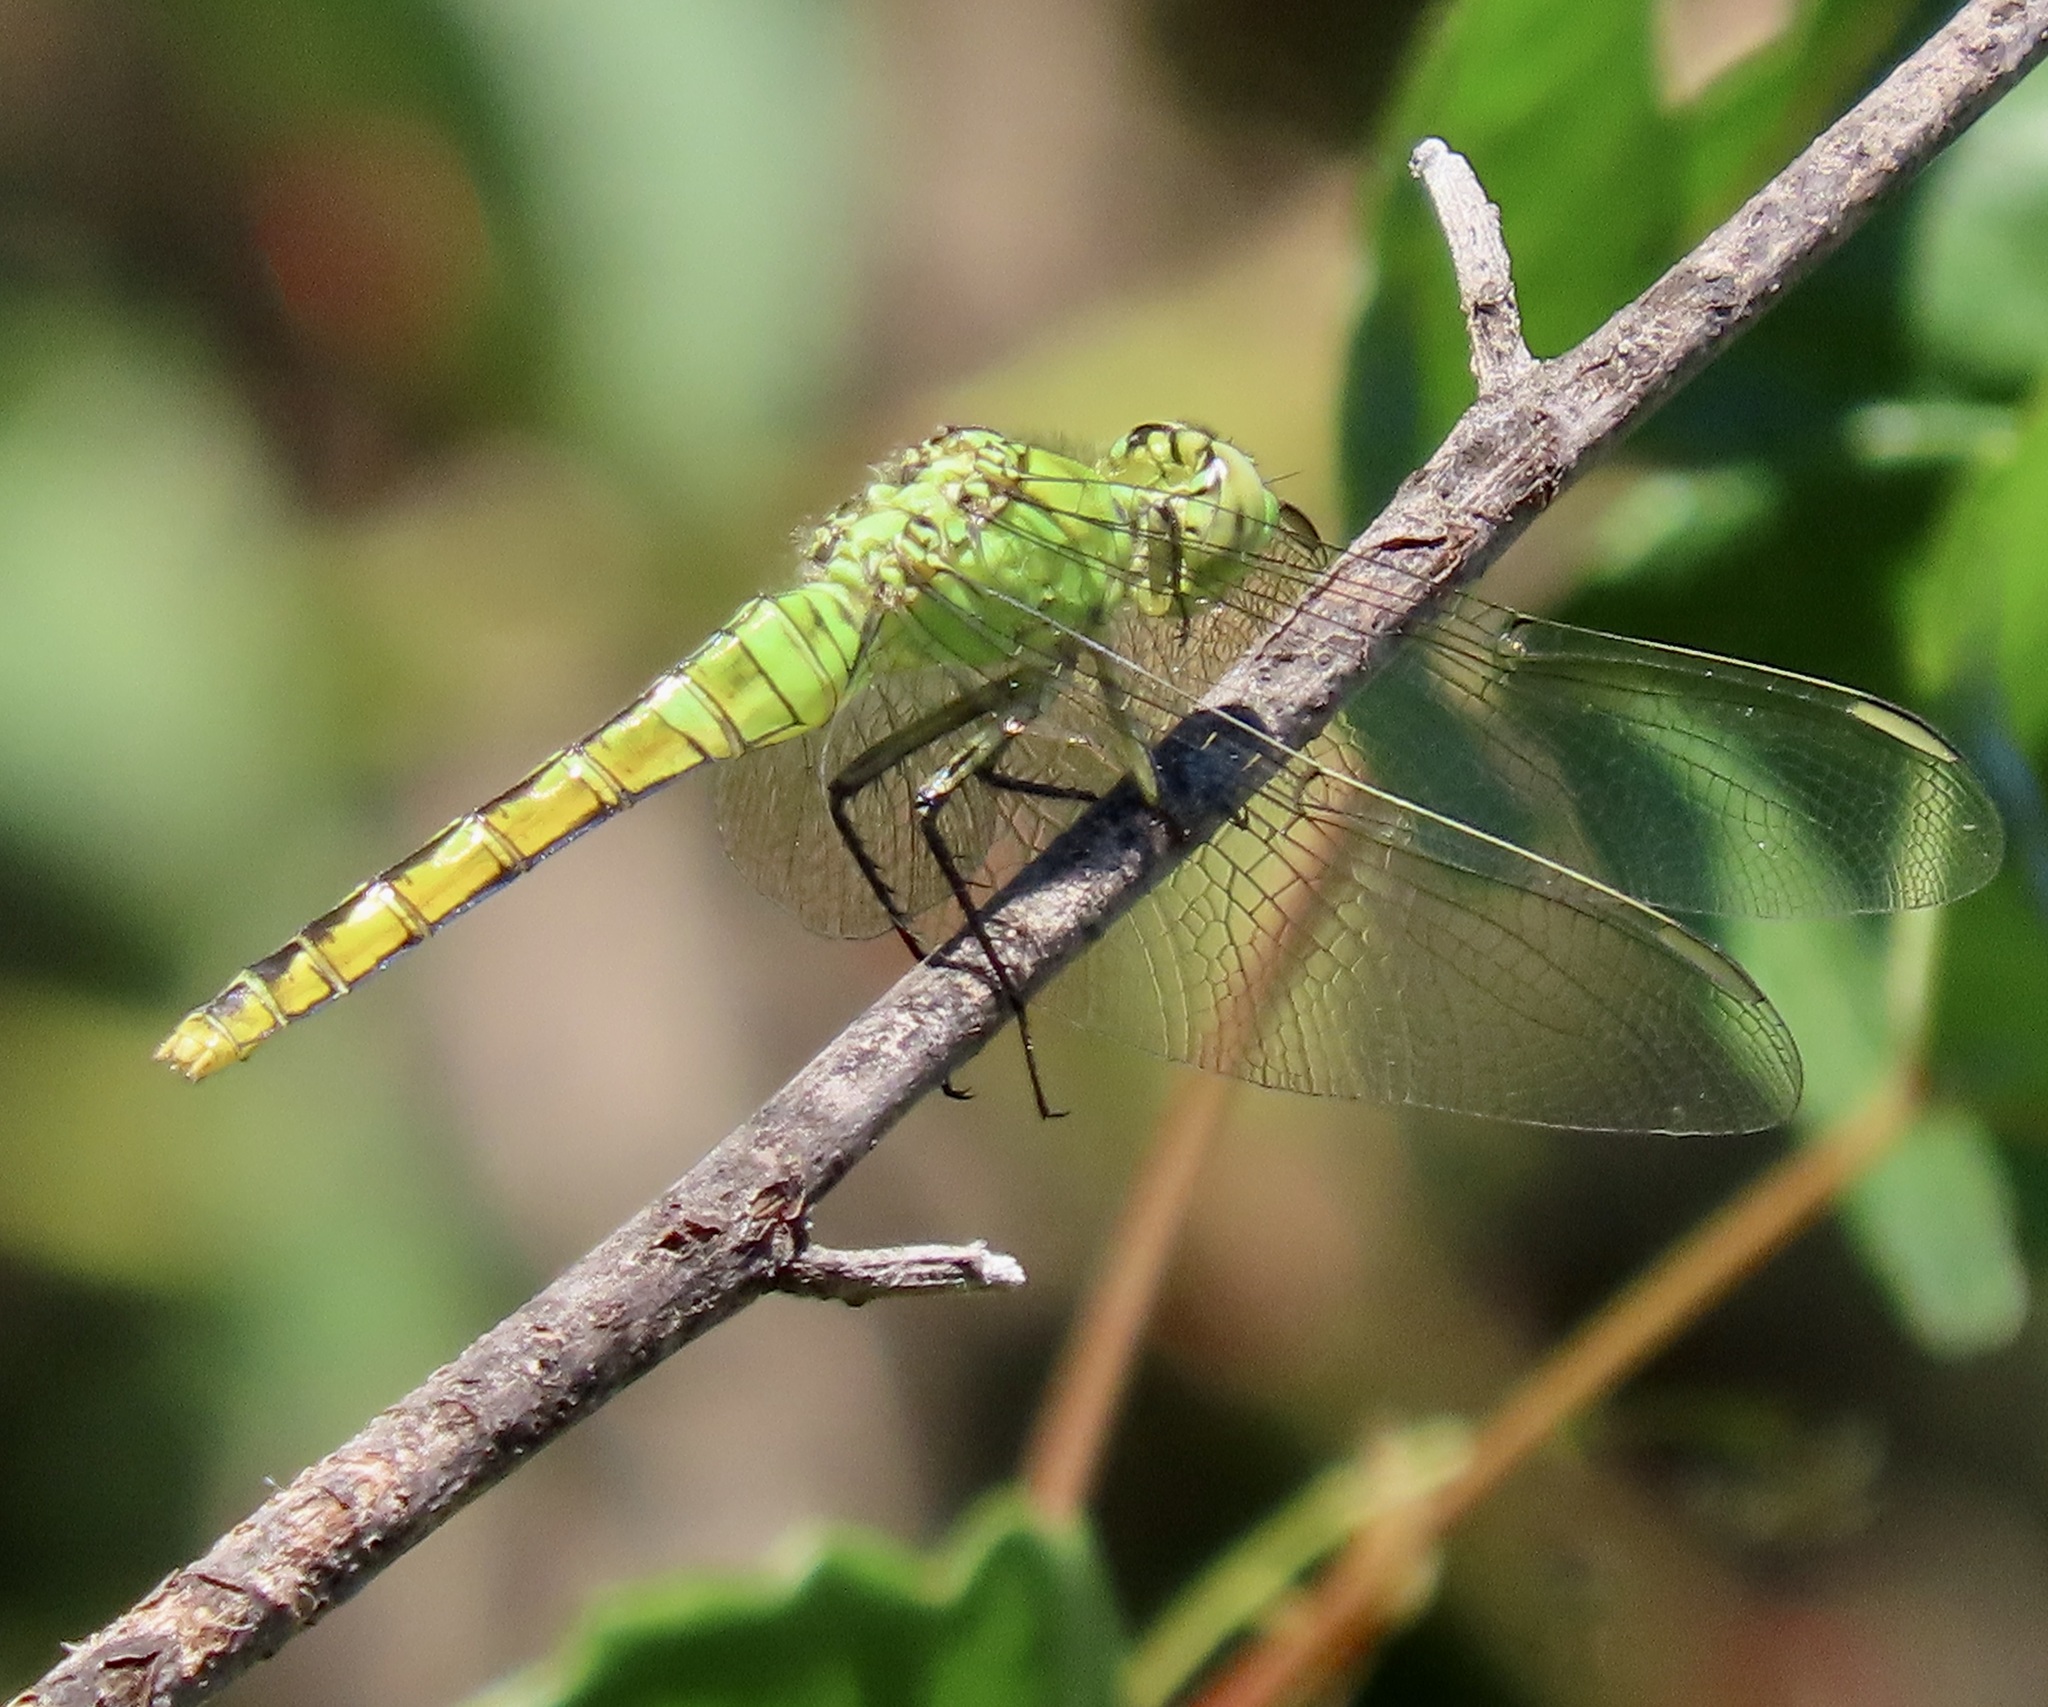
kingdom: Animalia
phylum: Arthropoda
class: Insecta
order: Odonata
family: Libellulidae
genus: Erythemis
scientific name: Erythemis collocata
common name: Western pondhawk
